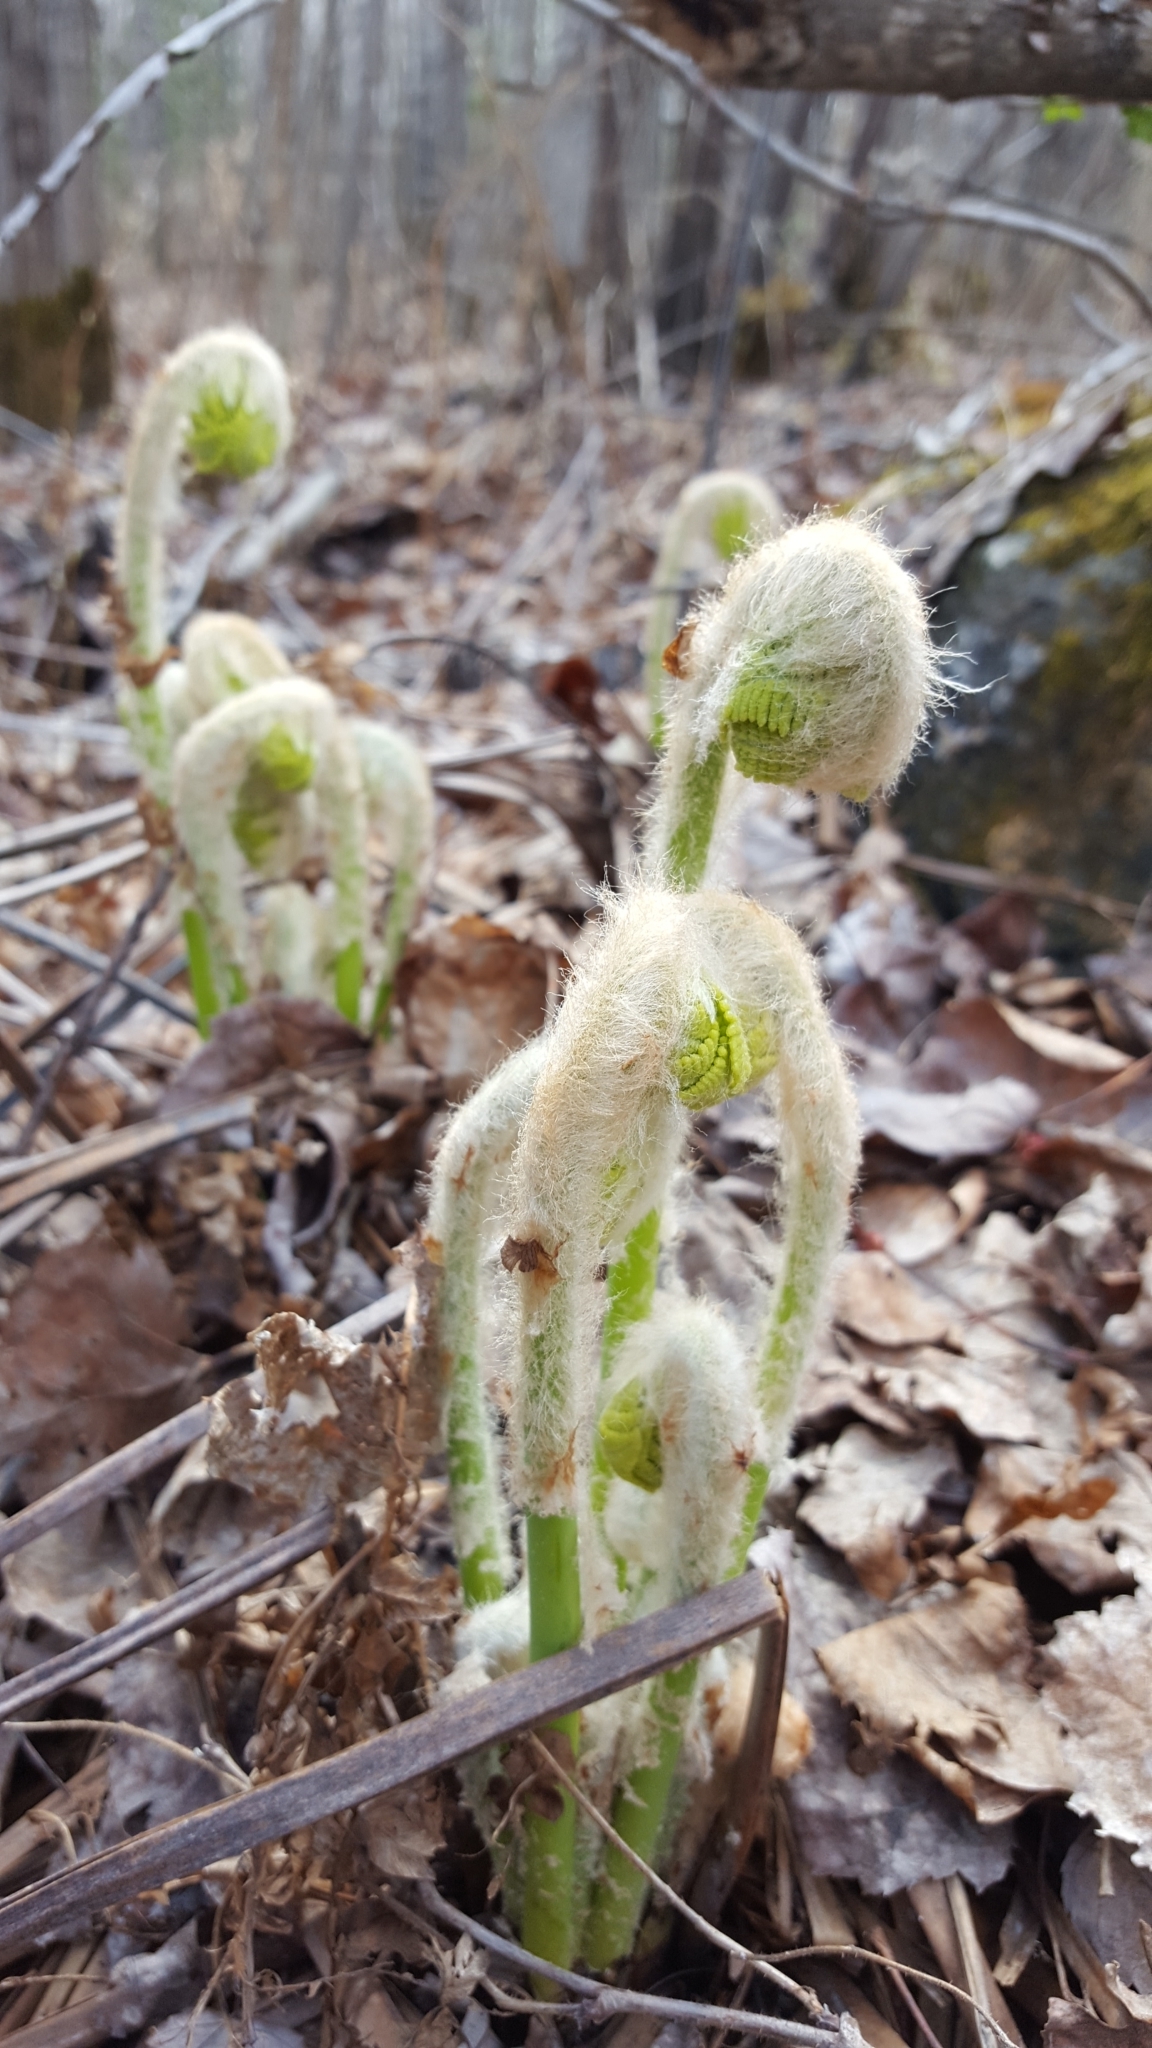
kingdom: Plantae
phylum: Tracheophyta
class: Polypodiopsida
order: Osmundales
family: Osmundaceae
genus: Claytosmunda
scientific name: Claytosmunda claytoniana
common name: Clayton's fern
